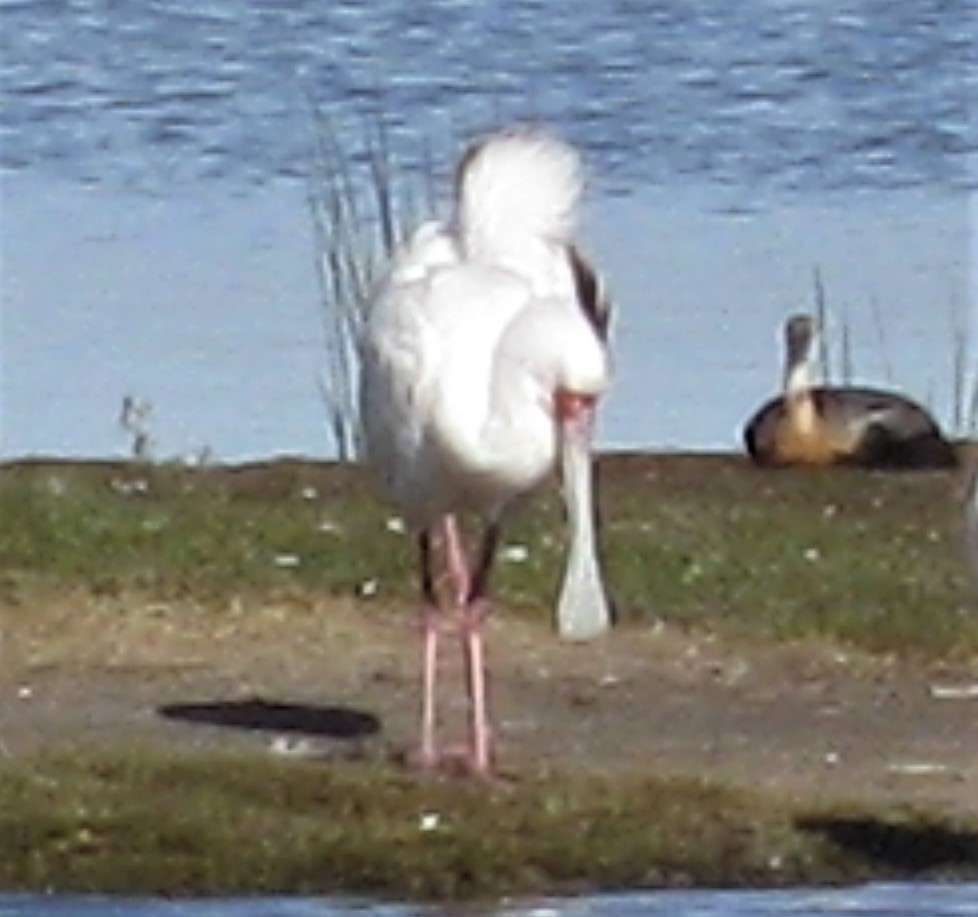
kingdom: Animalia
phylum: Chordata
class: Aves
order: Pelecaniformes
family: Threskiornithidae
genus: Platalea
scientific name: Platalea alba
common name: African spoonbill
